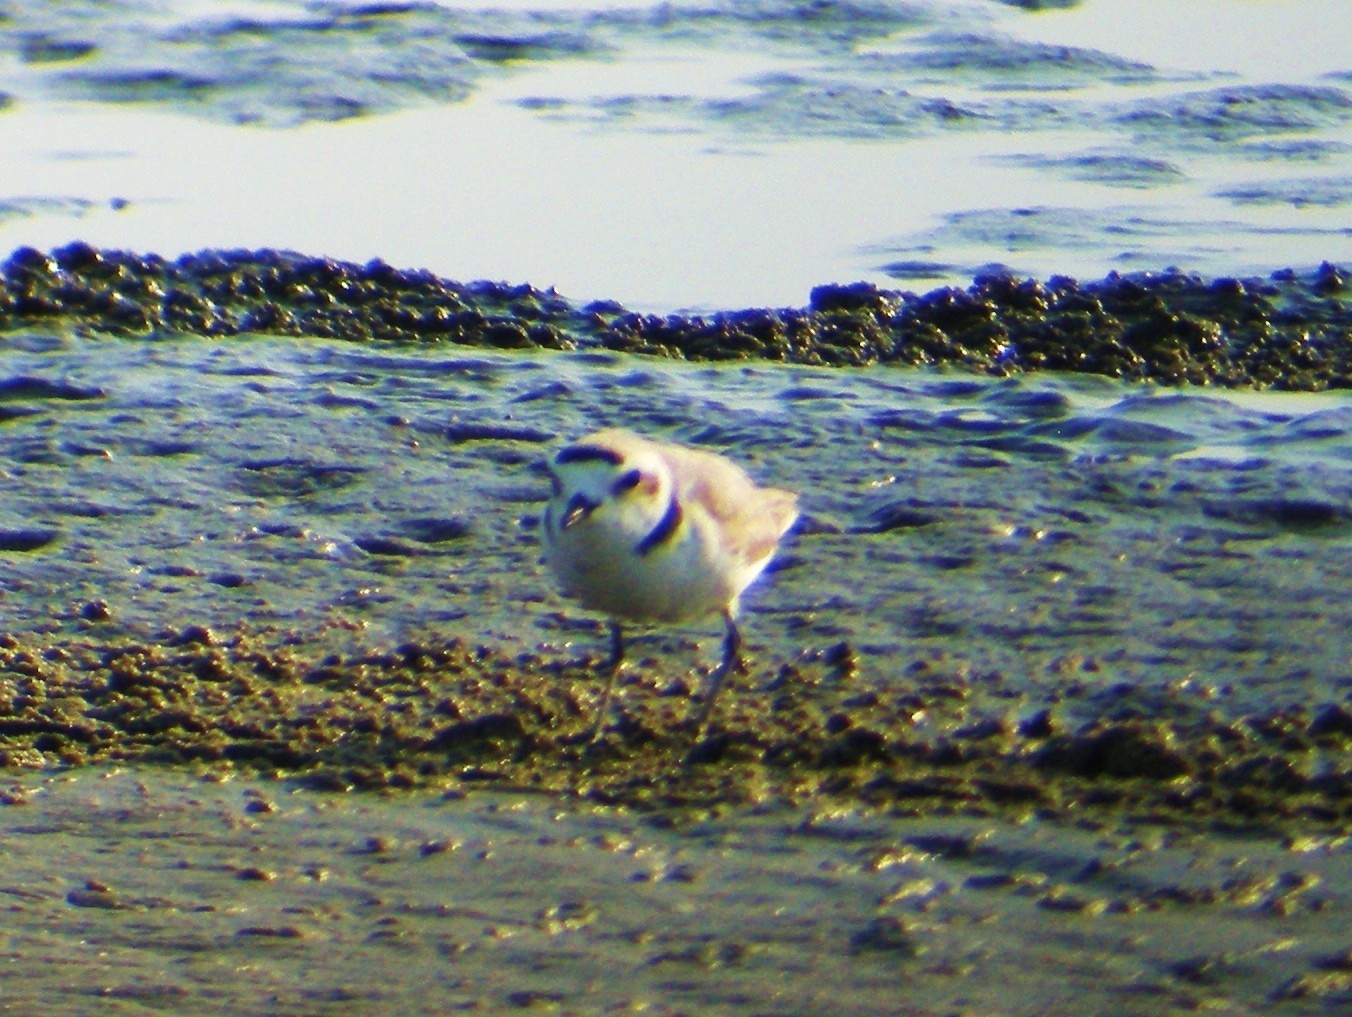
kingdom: Animalia
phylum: Chordata
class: Aves
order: Charadriiformes
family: Charadriidae
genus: Anarhynchus
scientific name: Anarhynchus
